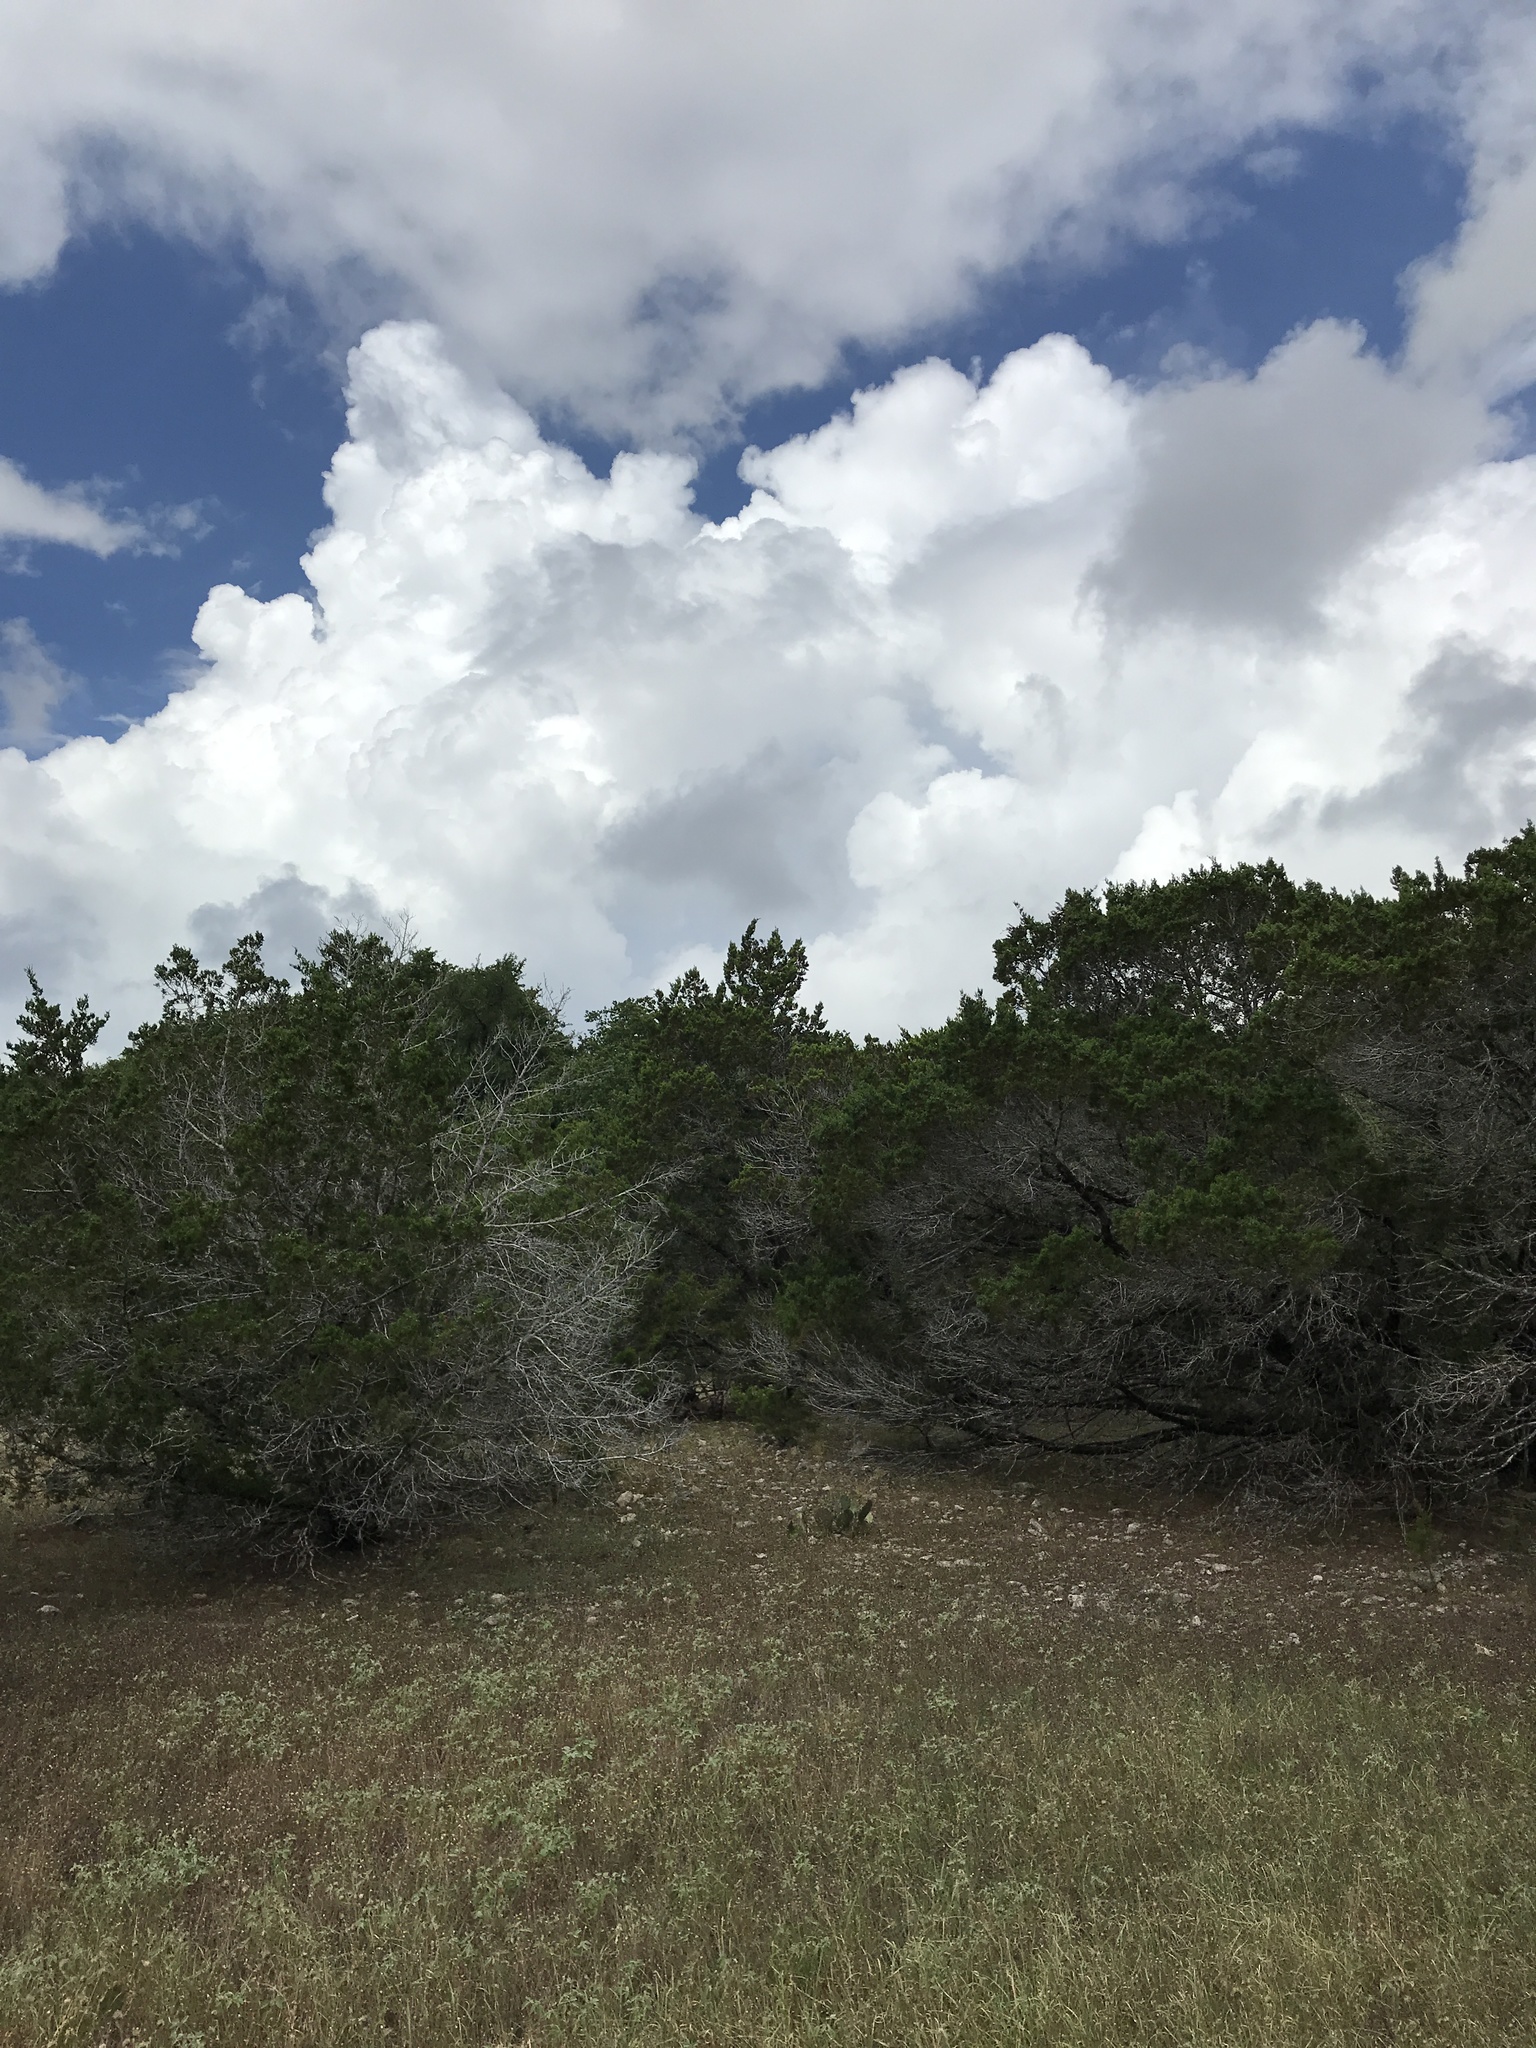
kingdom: Plantae
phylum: Tracheophyta
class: Pinopsida
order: Pinales
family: Cupressaceae
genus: Juniperus
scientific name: Juniperus ashei
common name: Mexican juniper
